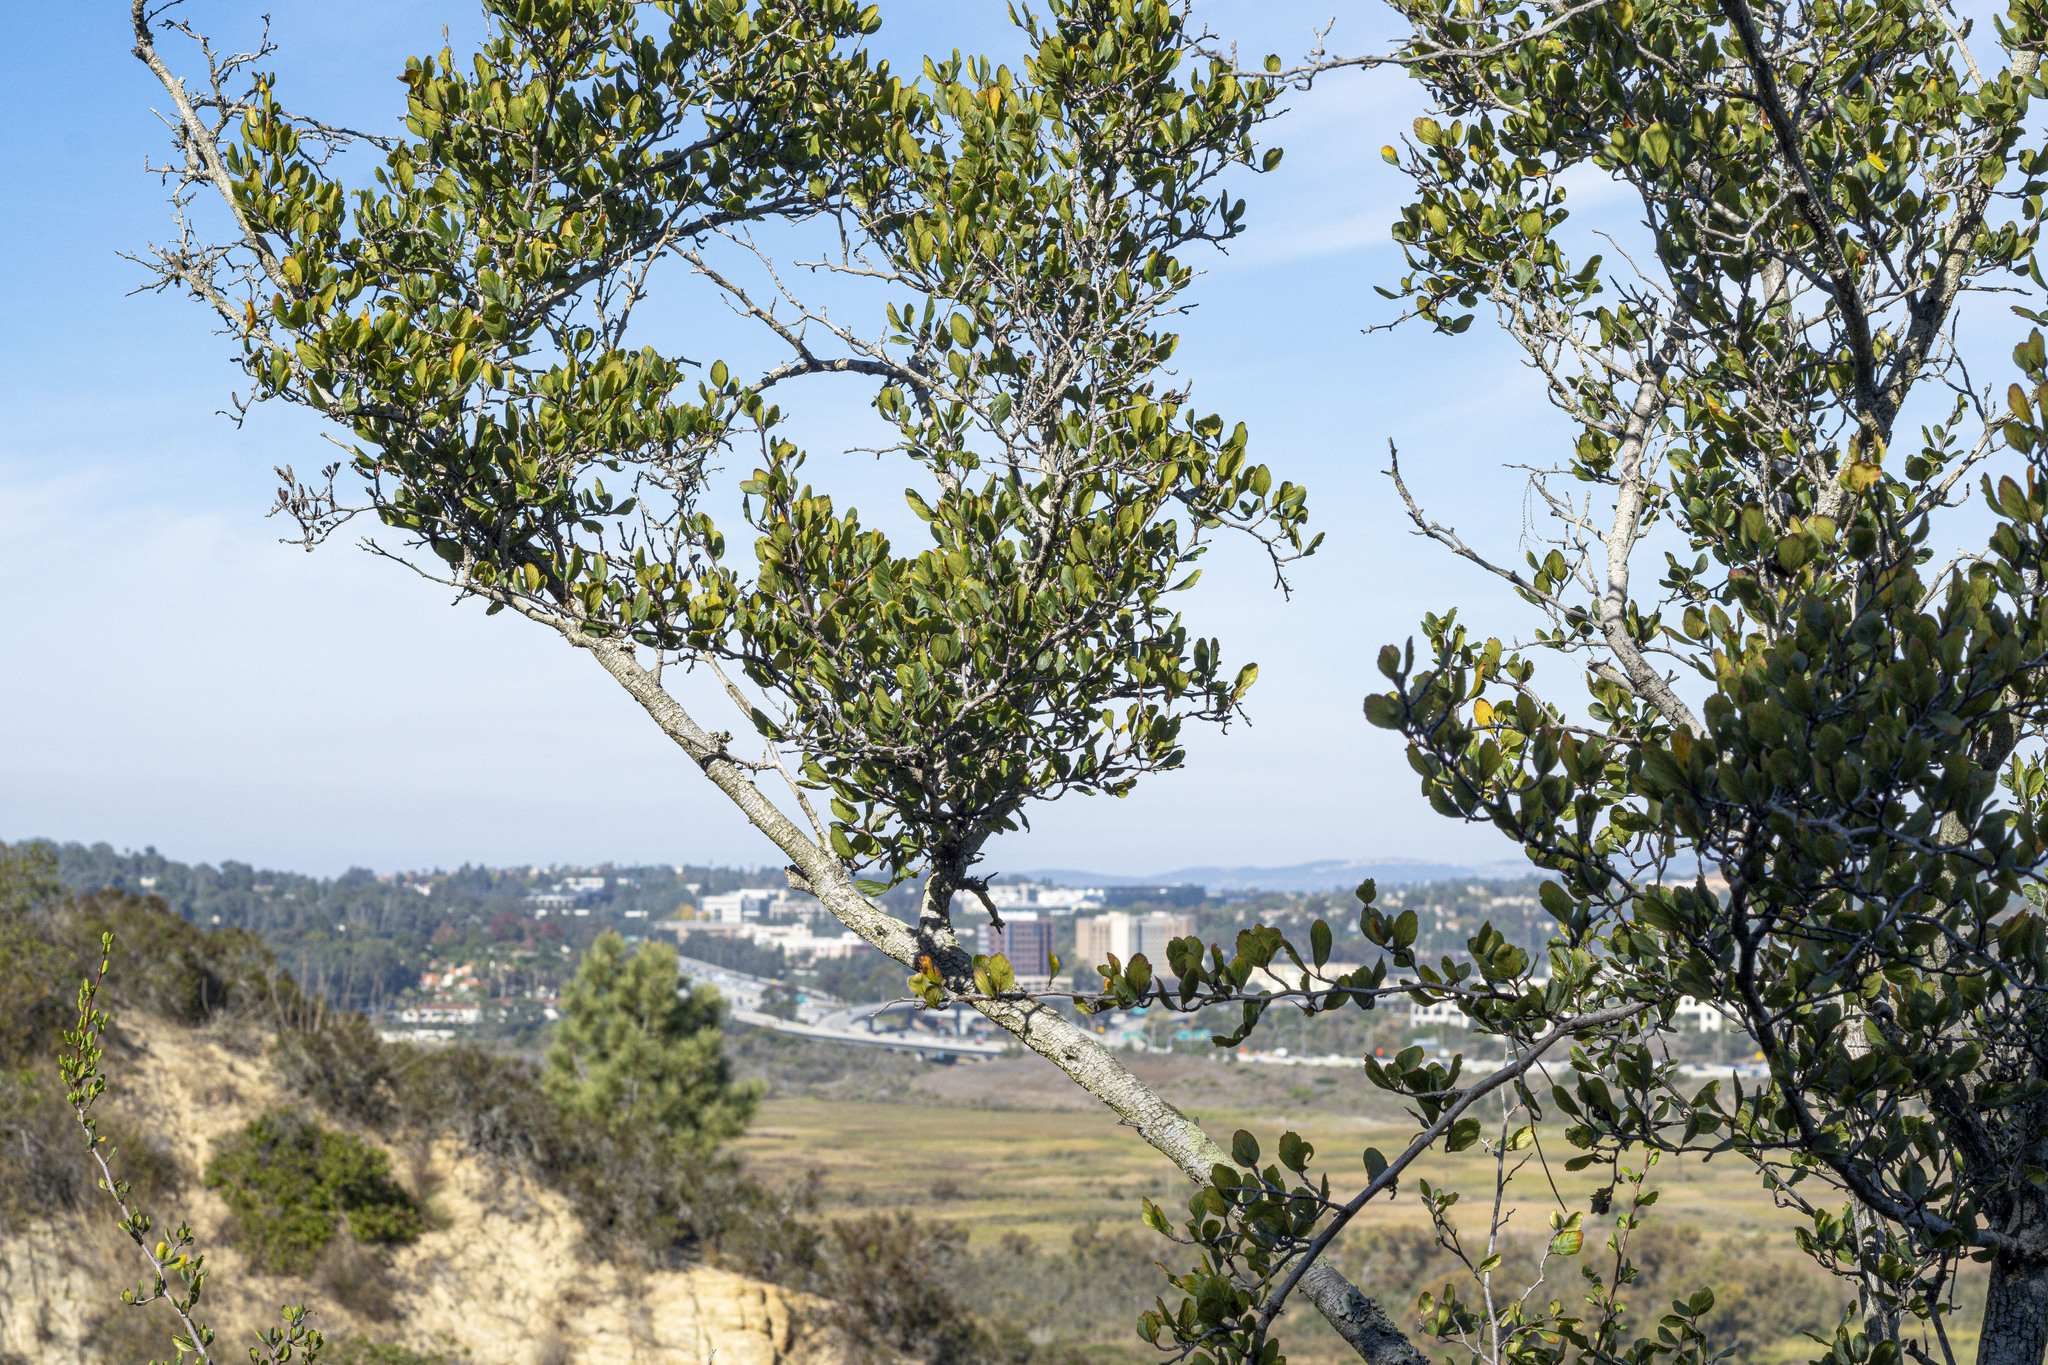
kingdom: Plantae
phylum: Tracheophyta
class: Magnoliopsida
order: Rosales
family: Rosaceae
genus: Cercocarpus
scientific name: Cercocarpus montanus
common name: Alder-leaf cercocarpus
